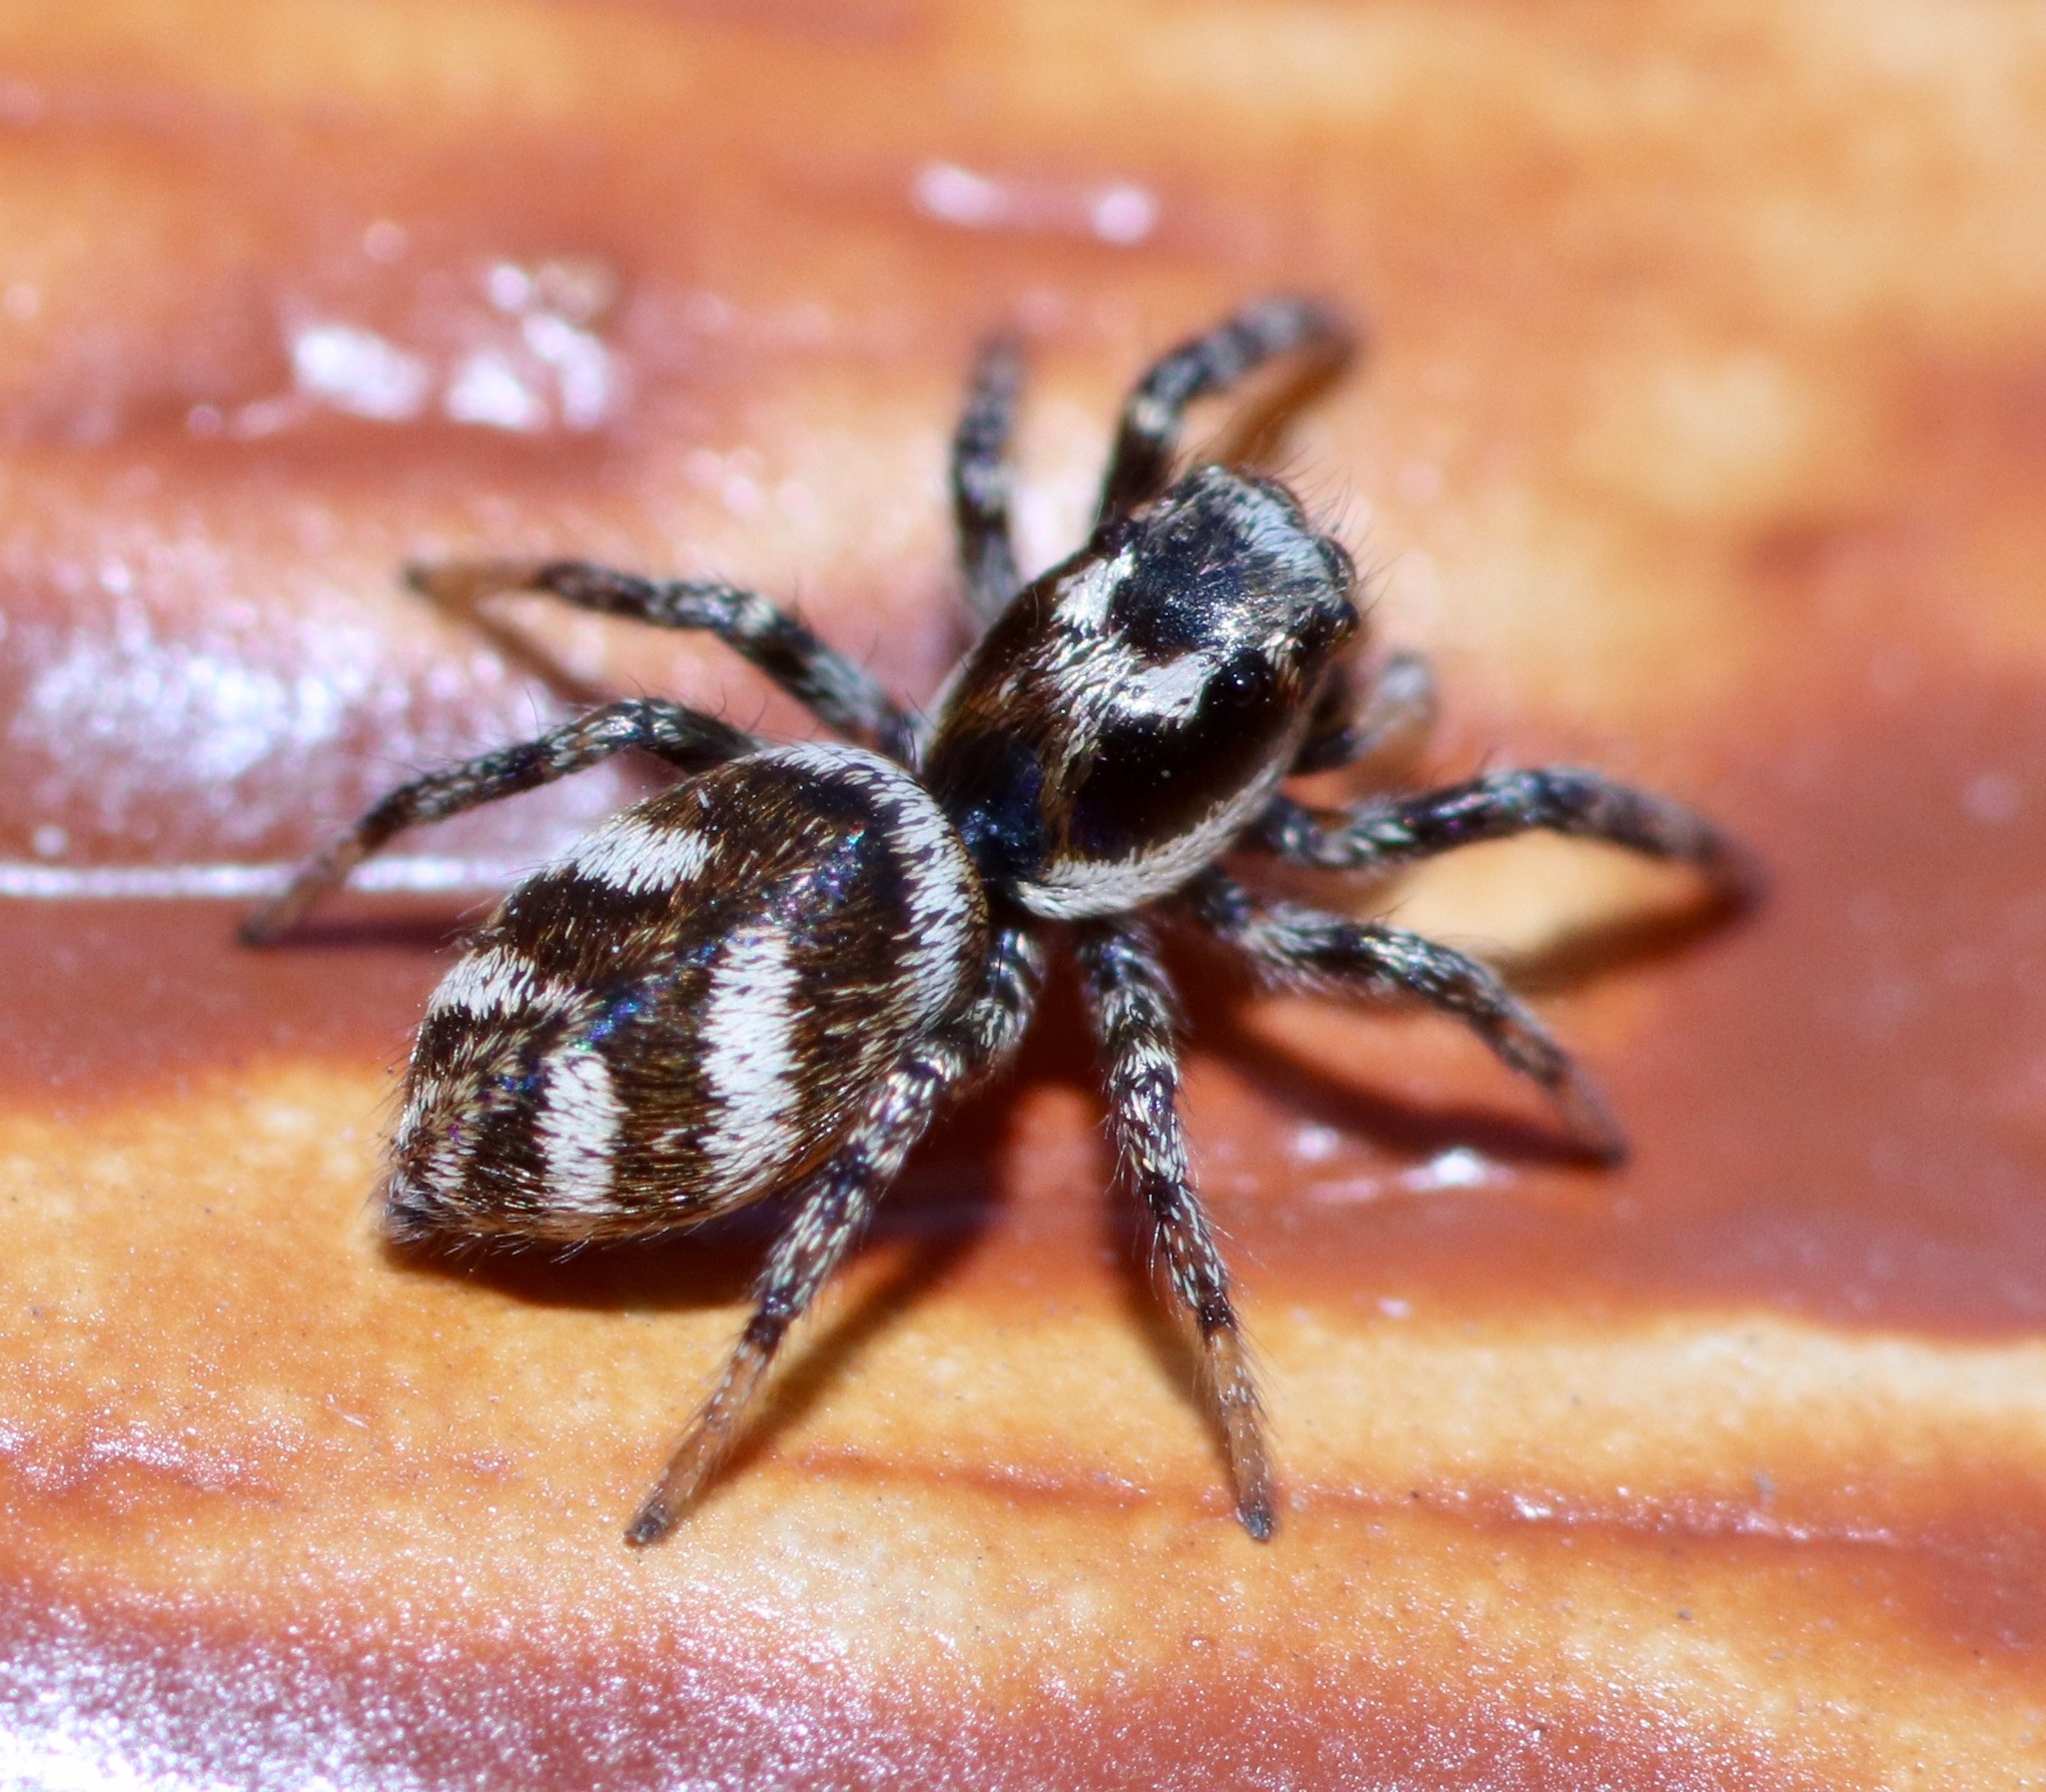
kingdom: Animalia
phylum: Arthropoda
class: Arachnida
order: Araneae
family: Salticidae
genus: Salticus
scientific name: Salticus scenicus
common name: Zebra jumper
